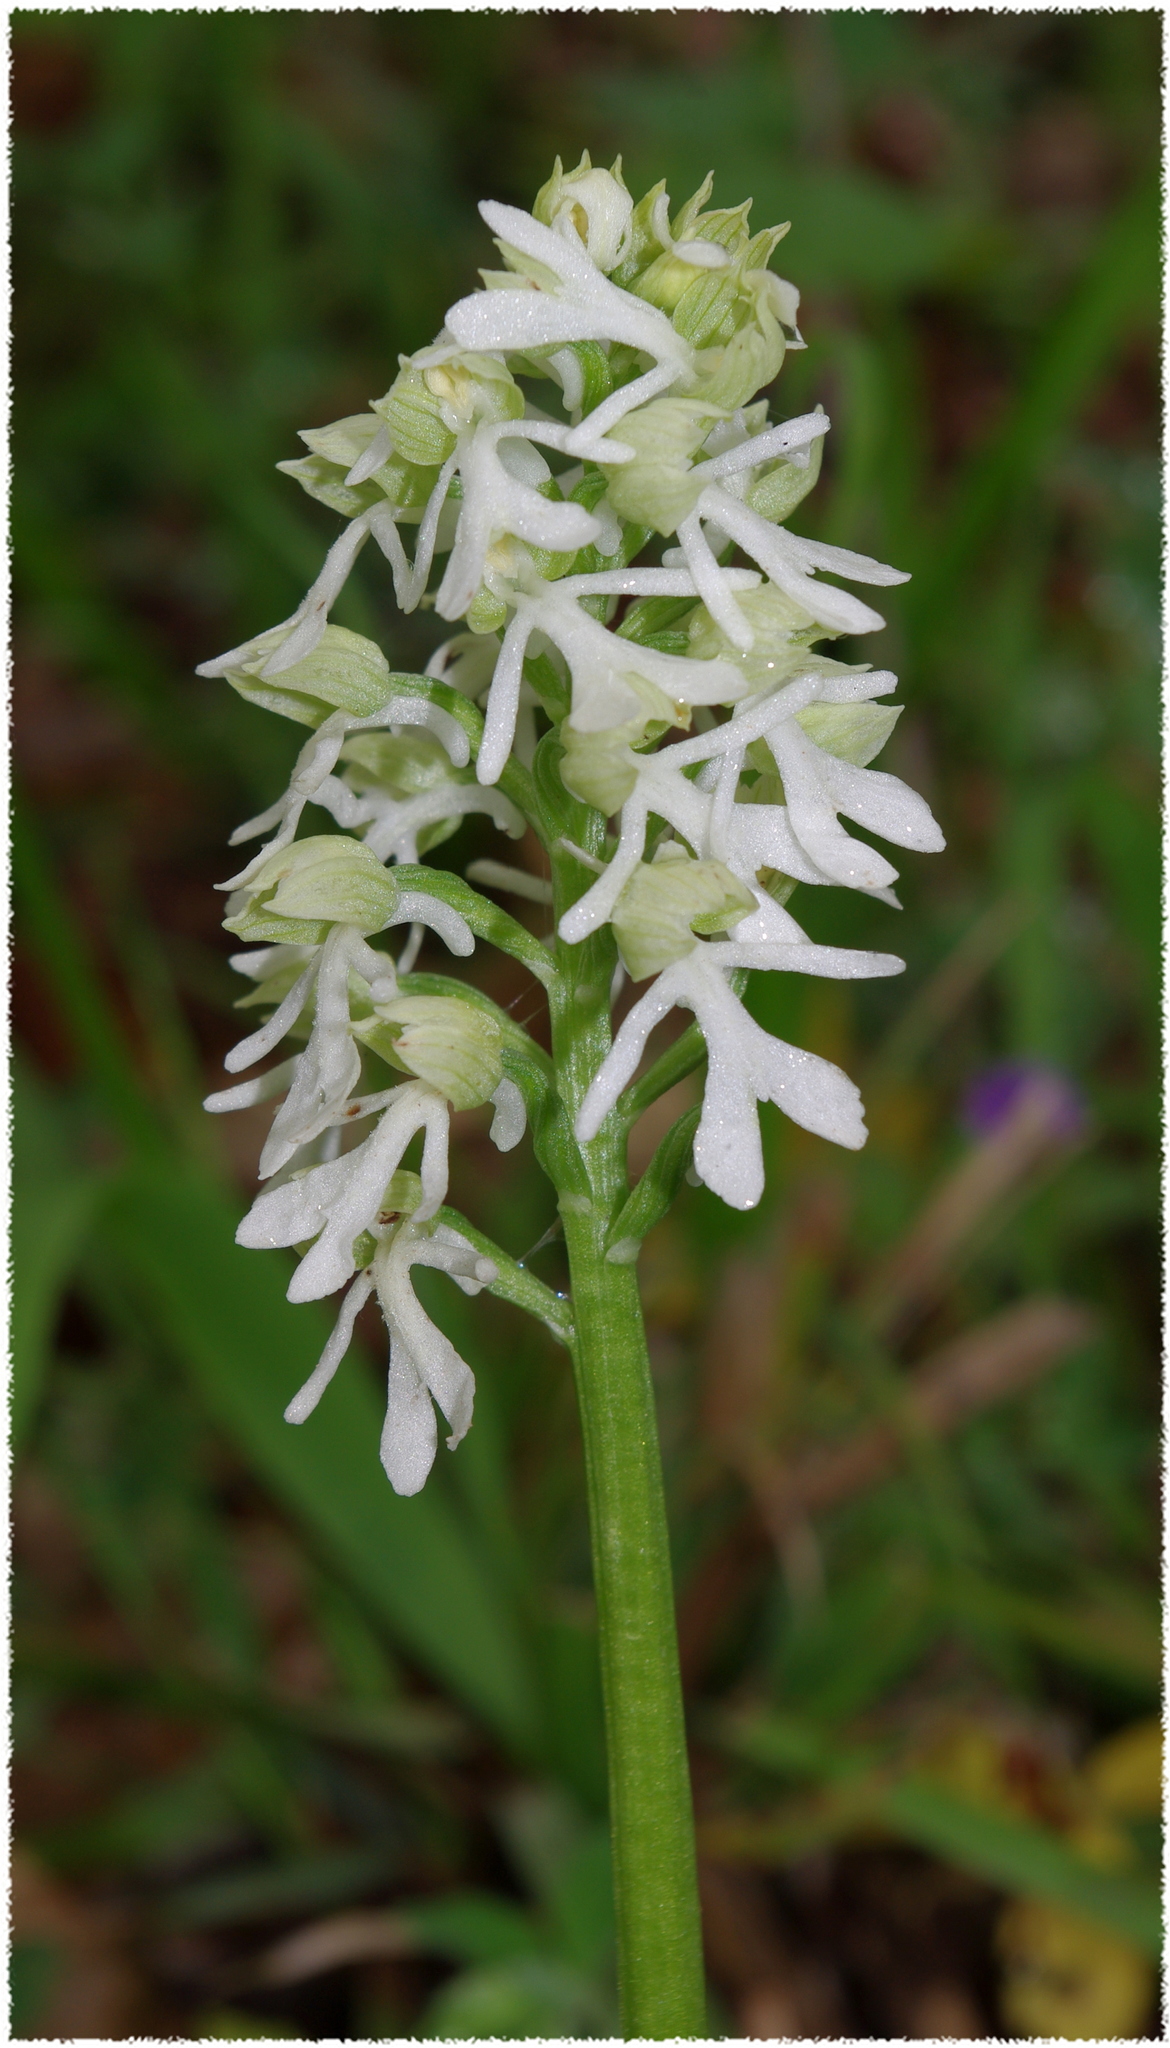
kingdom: Plantae
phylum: Tracheophyta
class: Liliopsida
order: Asparagales
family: Orchidaceae
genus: Orchis
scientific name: Orchis purpurea
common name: Lady orchid
